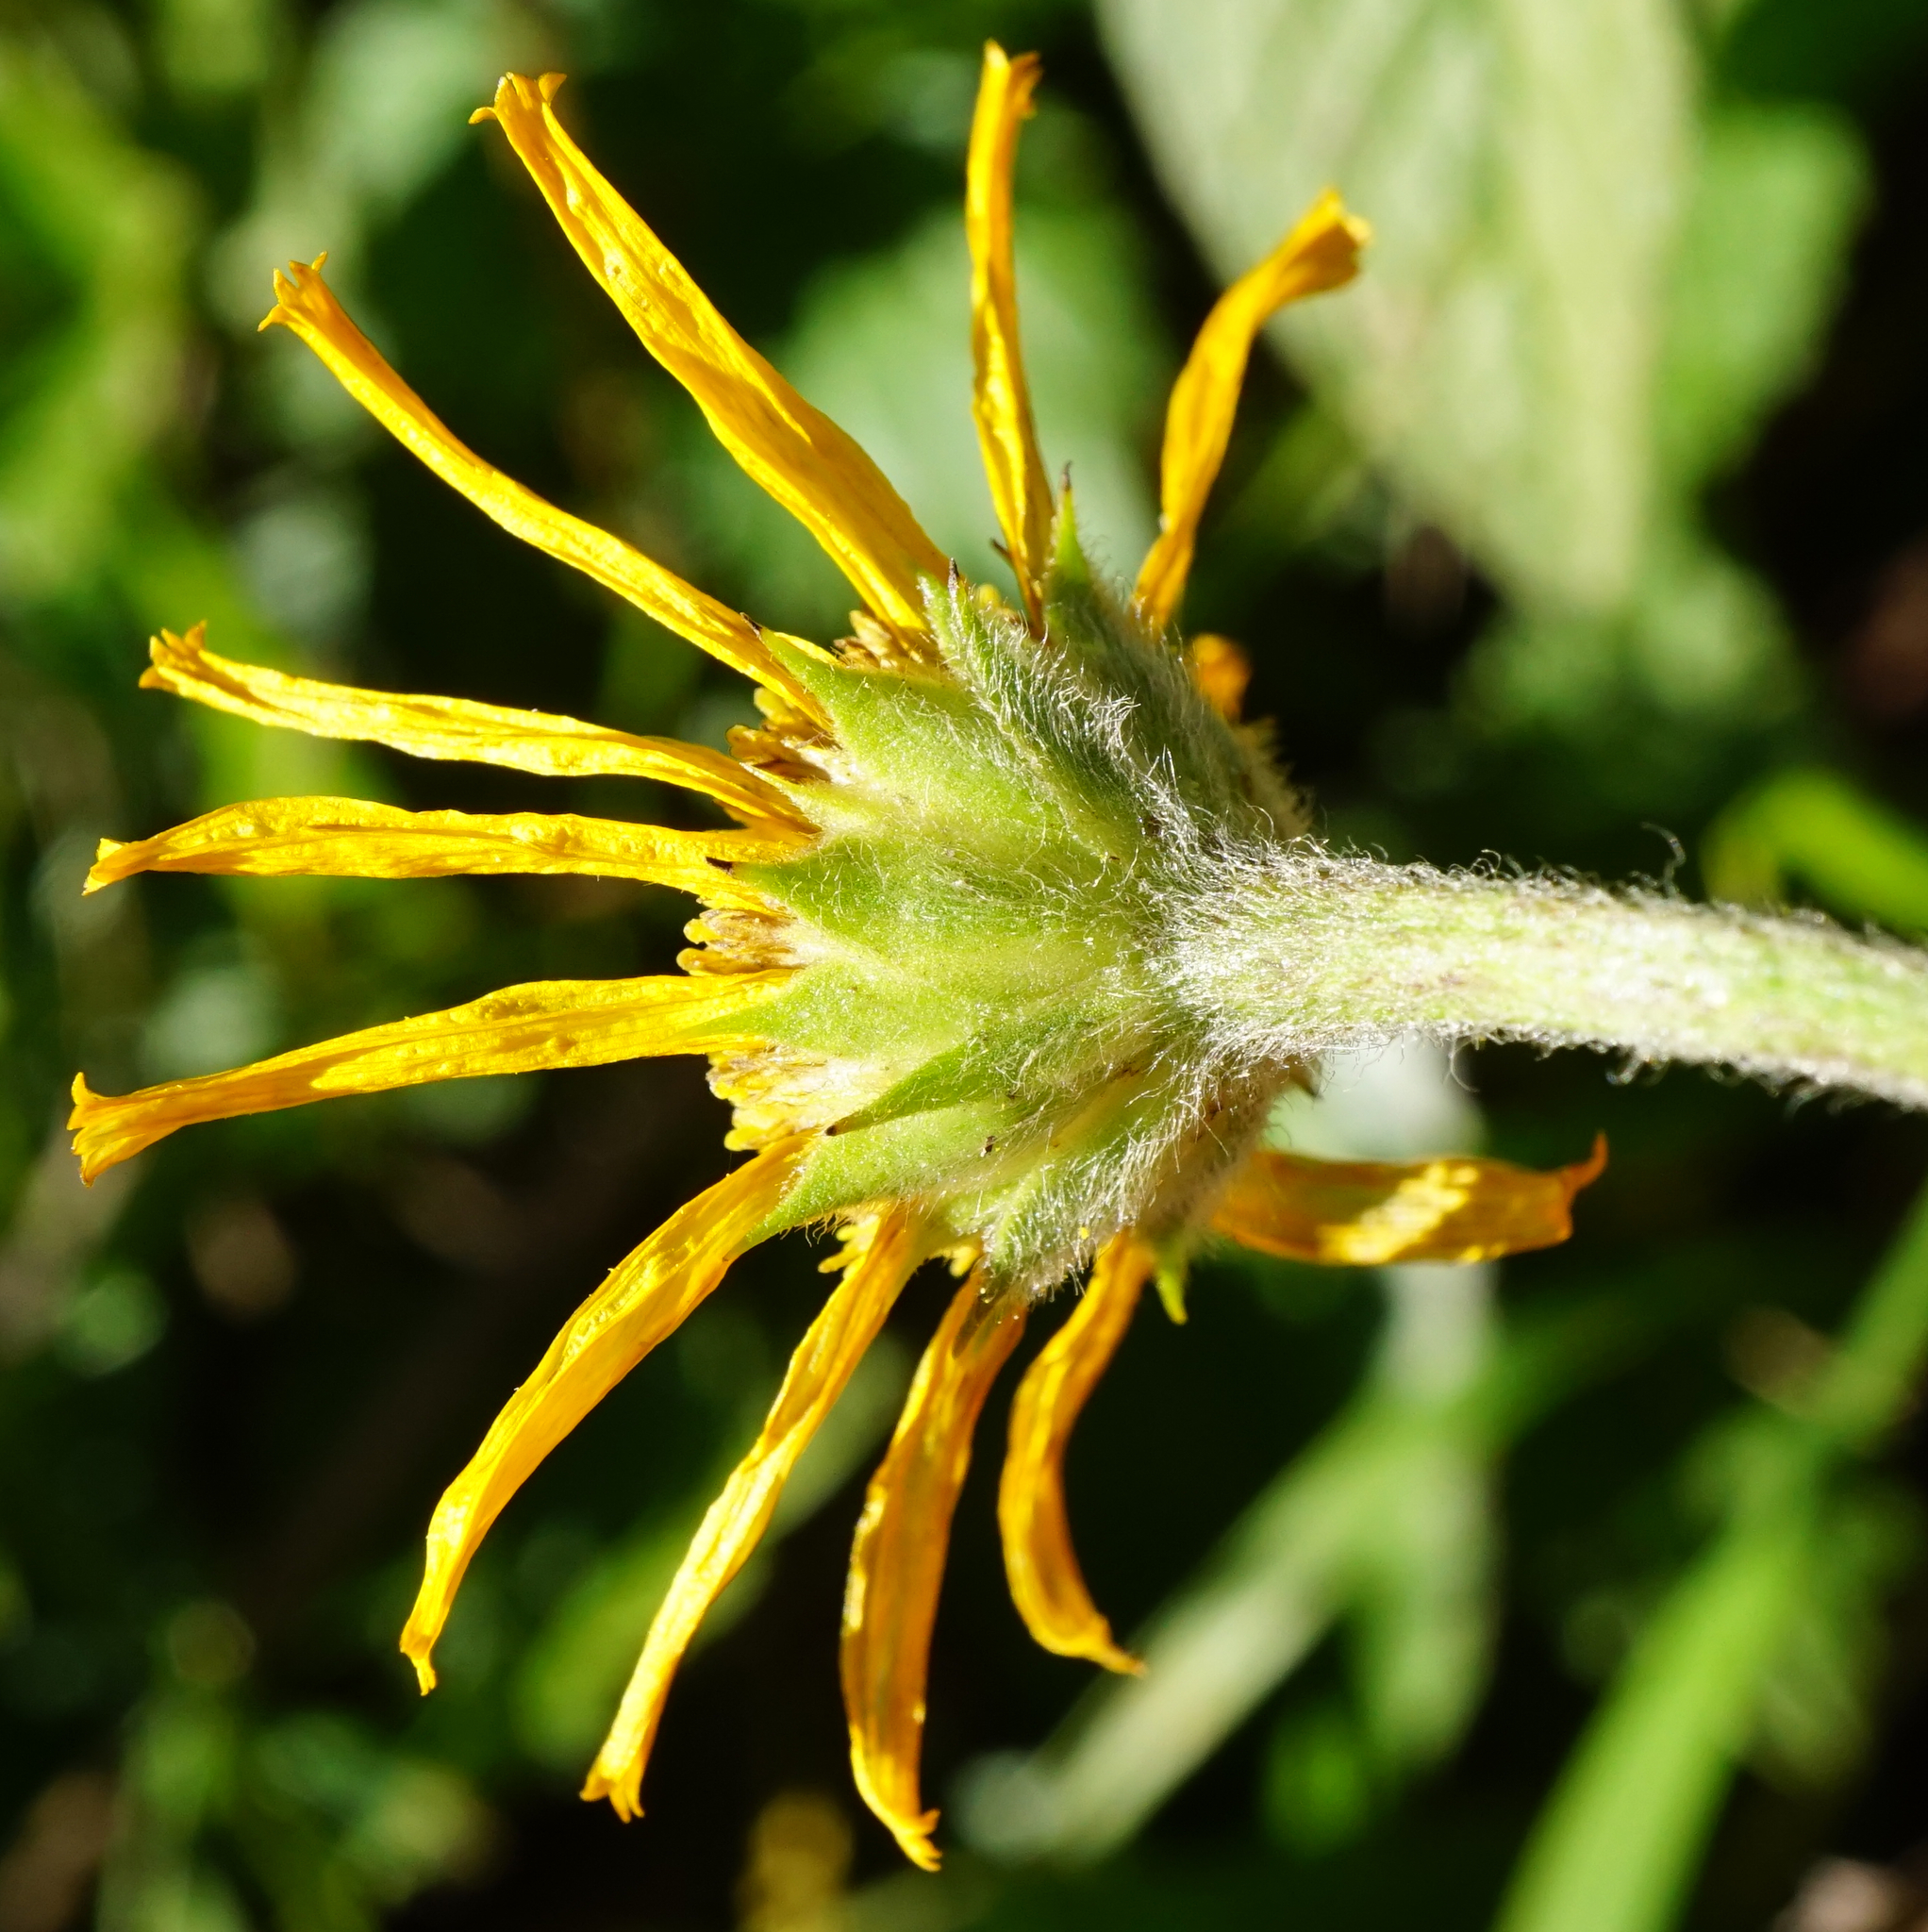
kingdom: Plantae
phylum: Tracheophyta
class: Magnoliopsida
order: Asterales
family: Asteraceae
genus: Buphthalmum
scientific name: Buphthalmum salicifolium
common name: Willow-leaved yellow-oxeye
